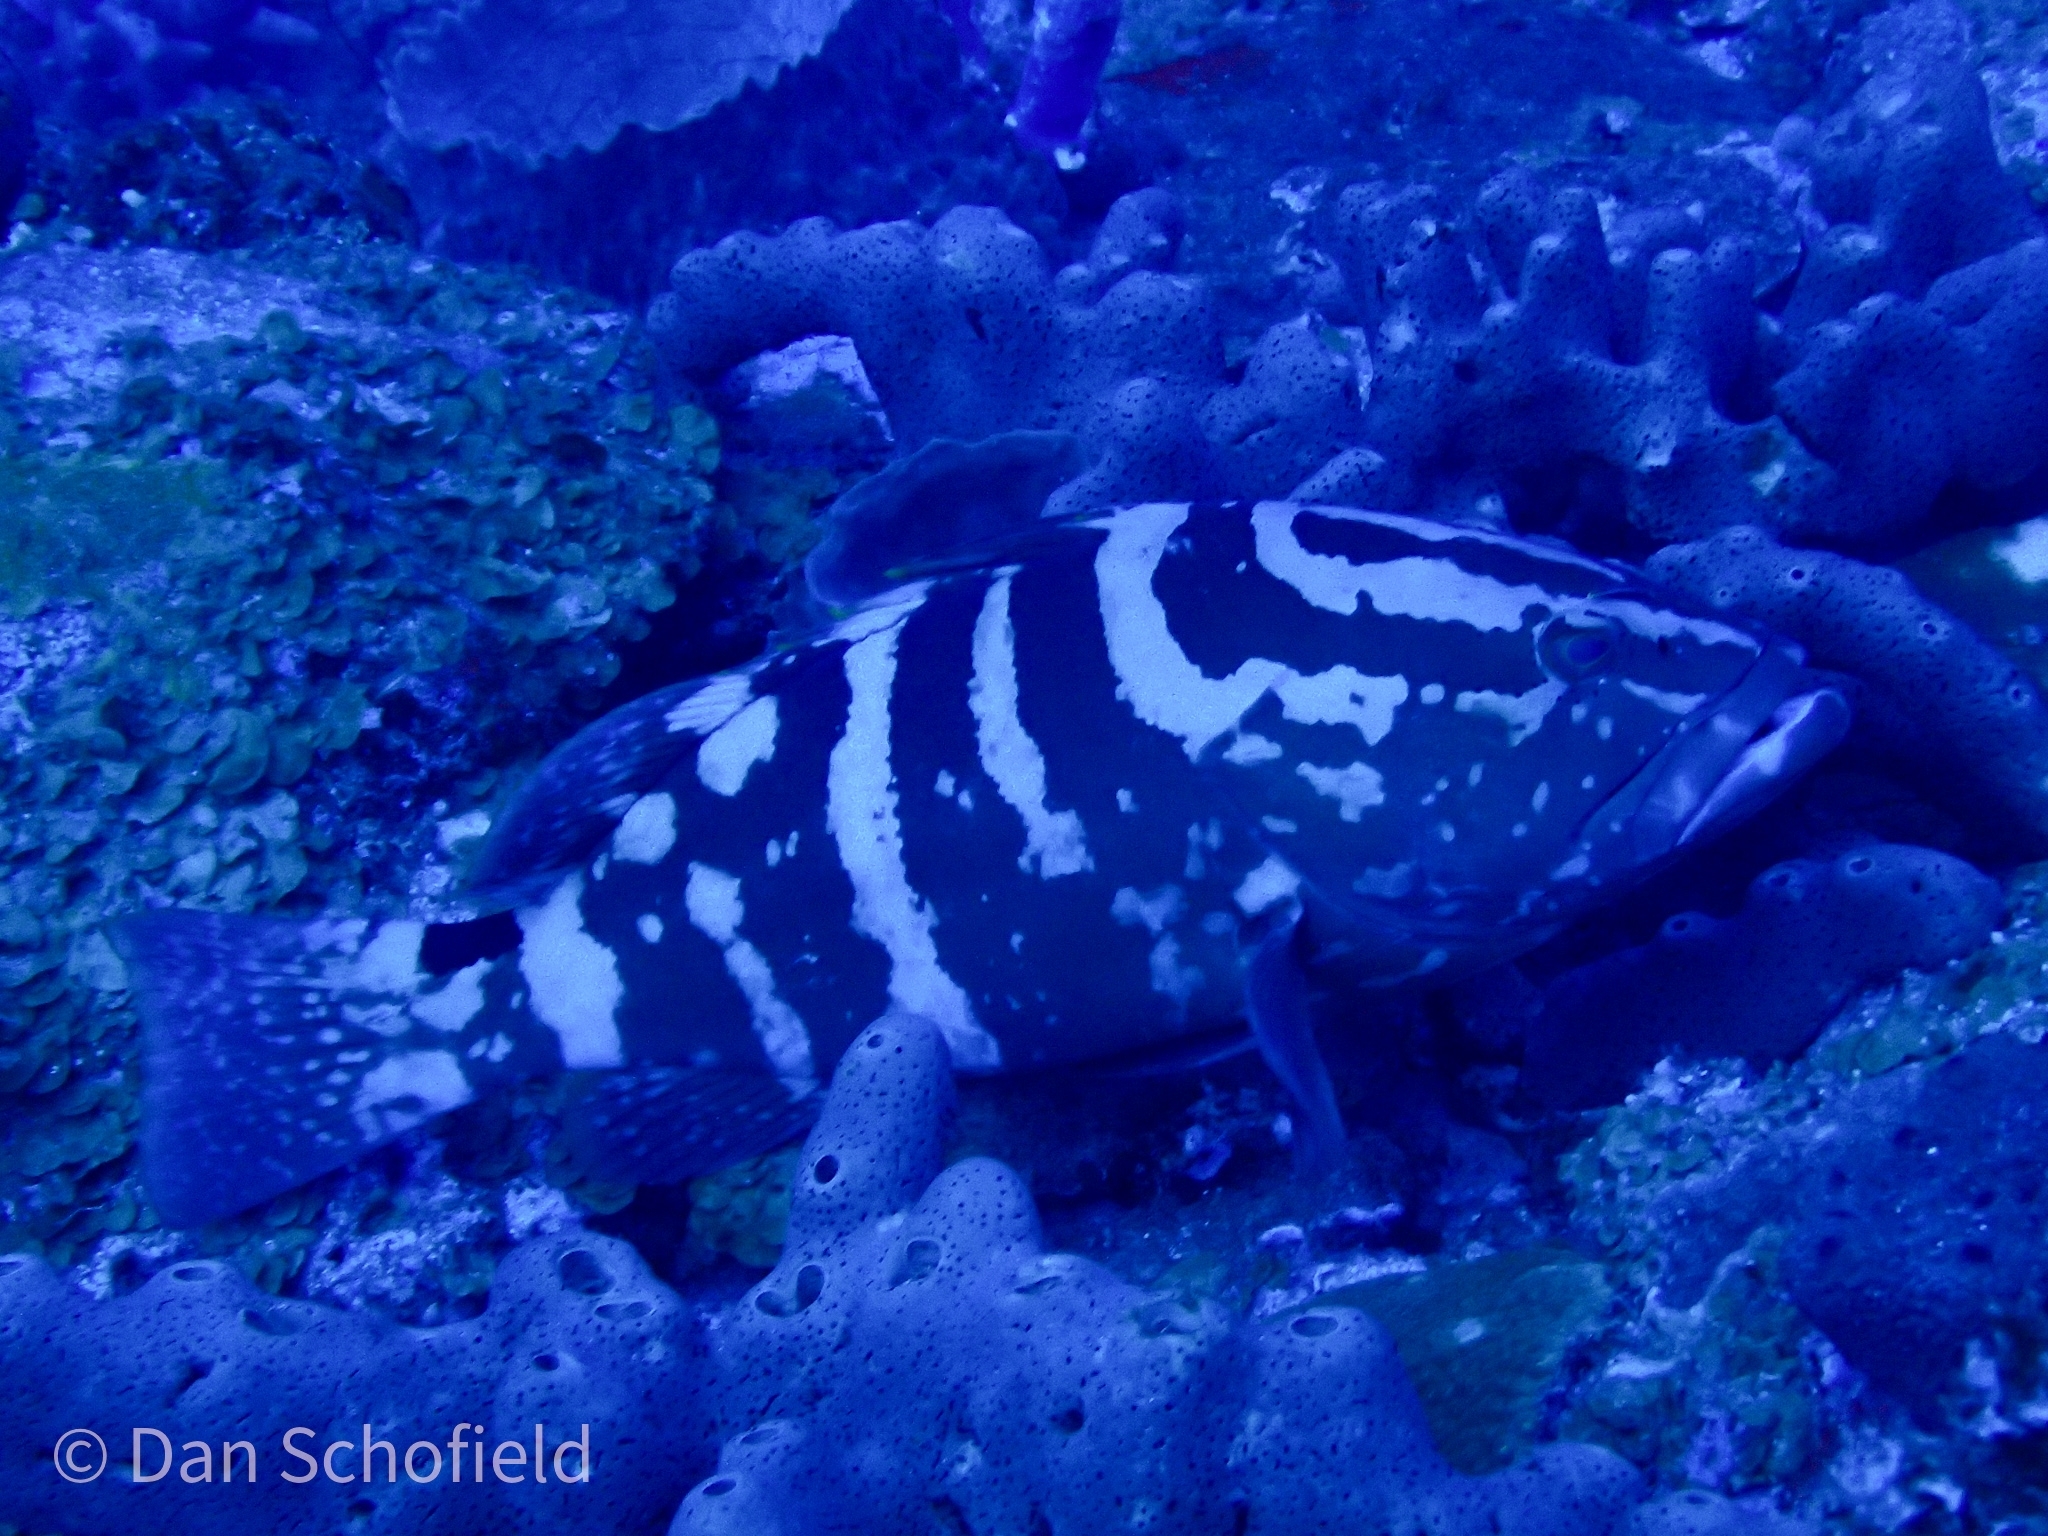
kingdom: Animalia
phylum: Chordata
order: Perciformes
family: Serranidae
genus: Epinephelus
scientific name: Epinephelus striatus
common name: Nassau grouper
